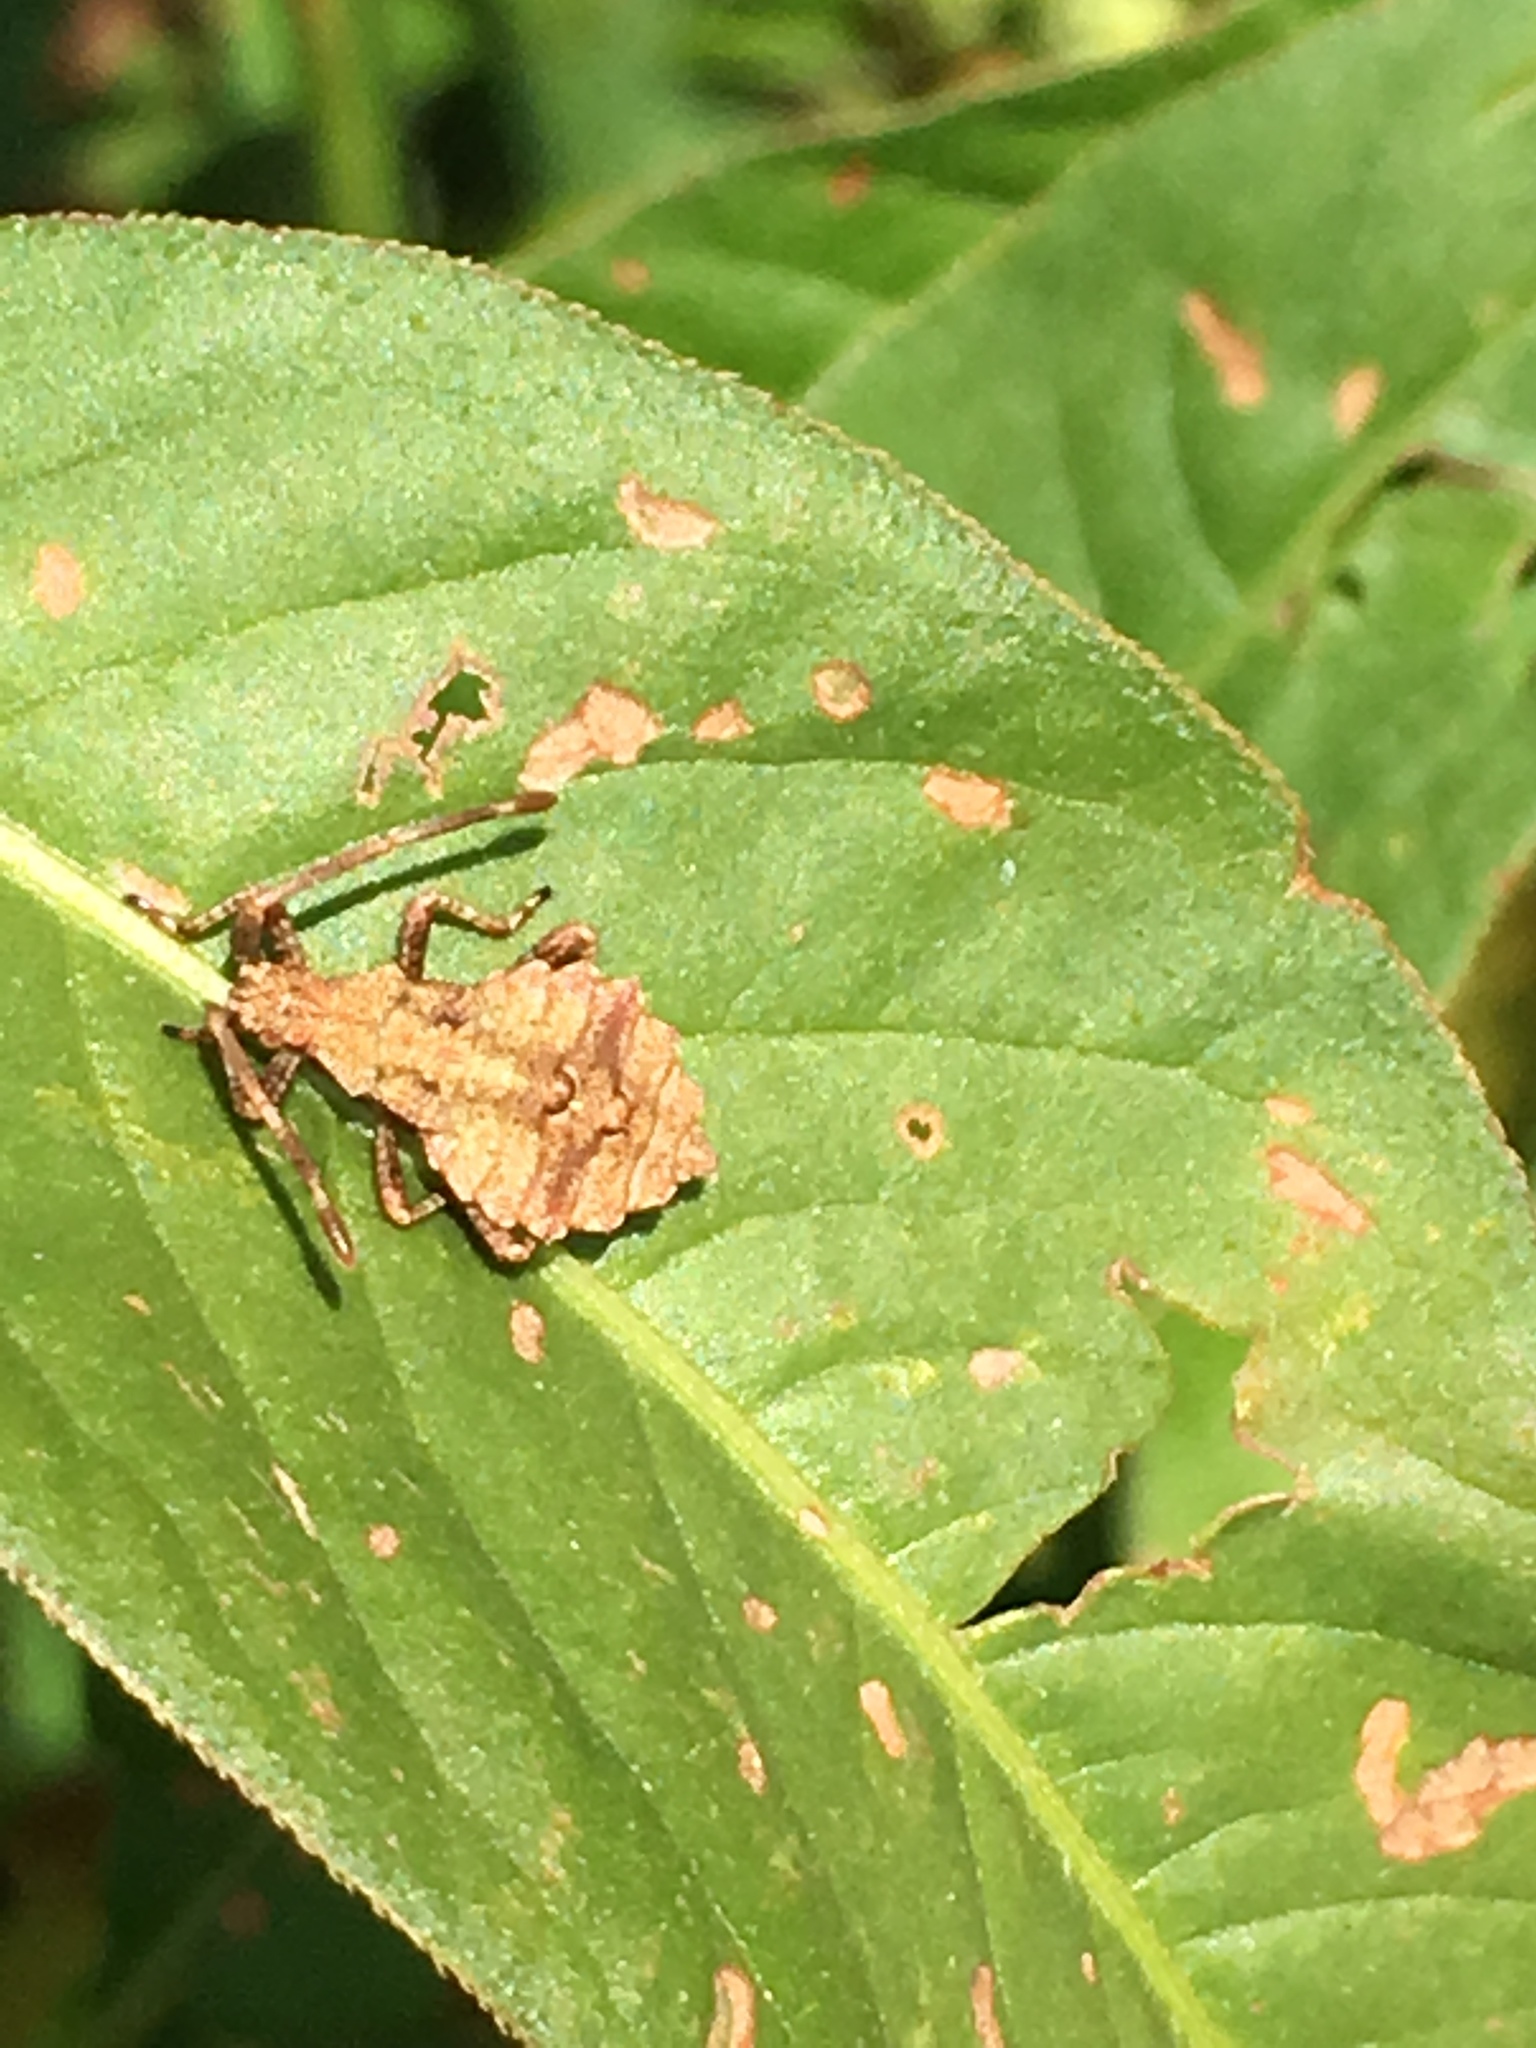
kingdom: Animalia
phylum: Arthropoda
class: Insecta
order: Hemiptera
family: Coreidae
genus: Coreus
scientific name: Coreus marginatus
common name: Dock bug
